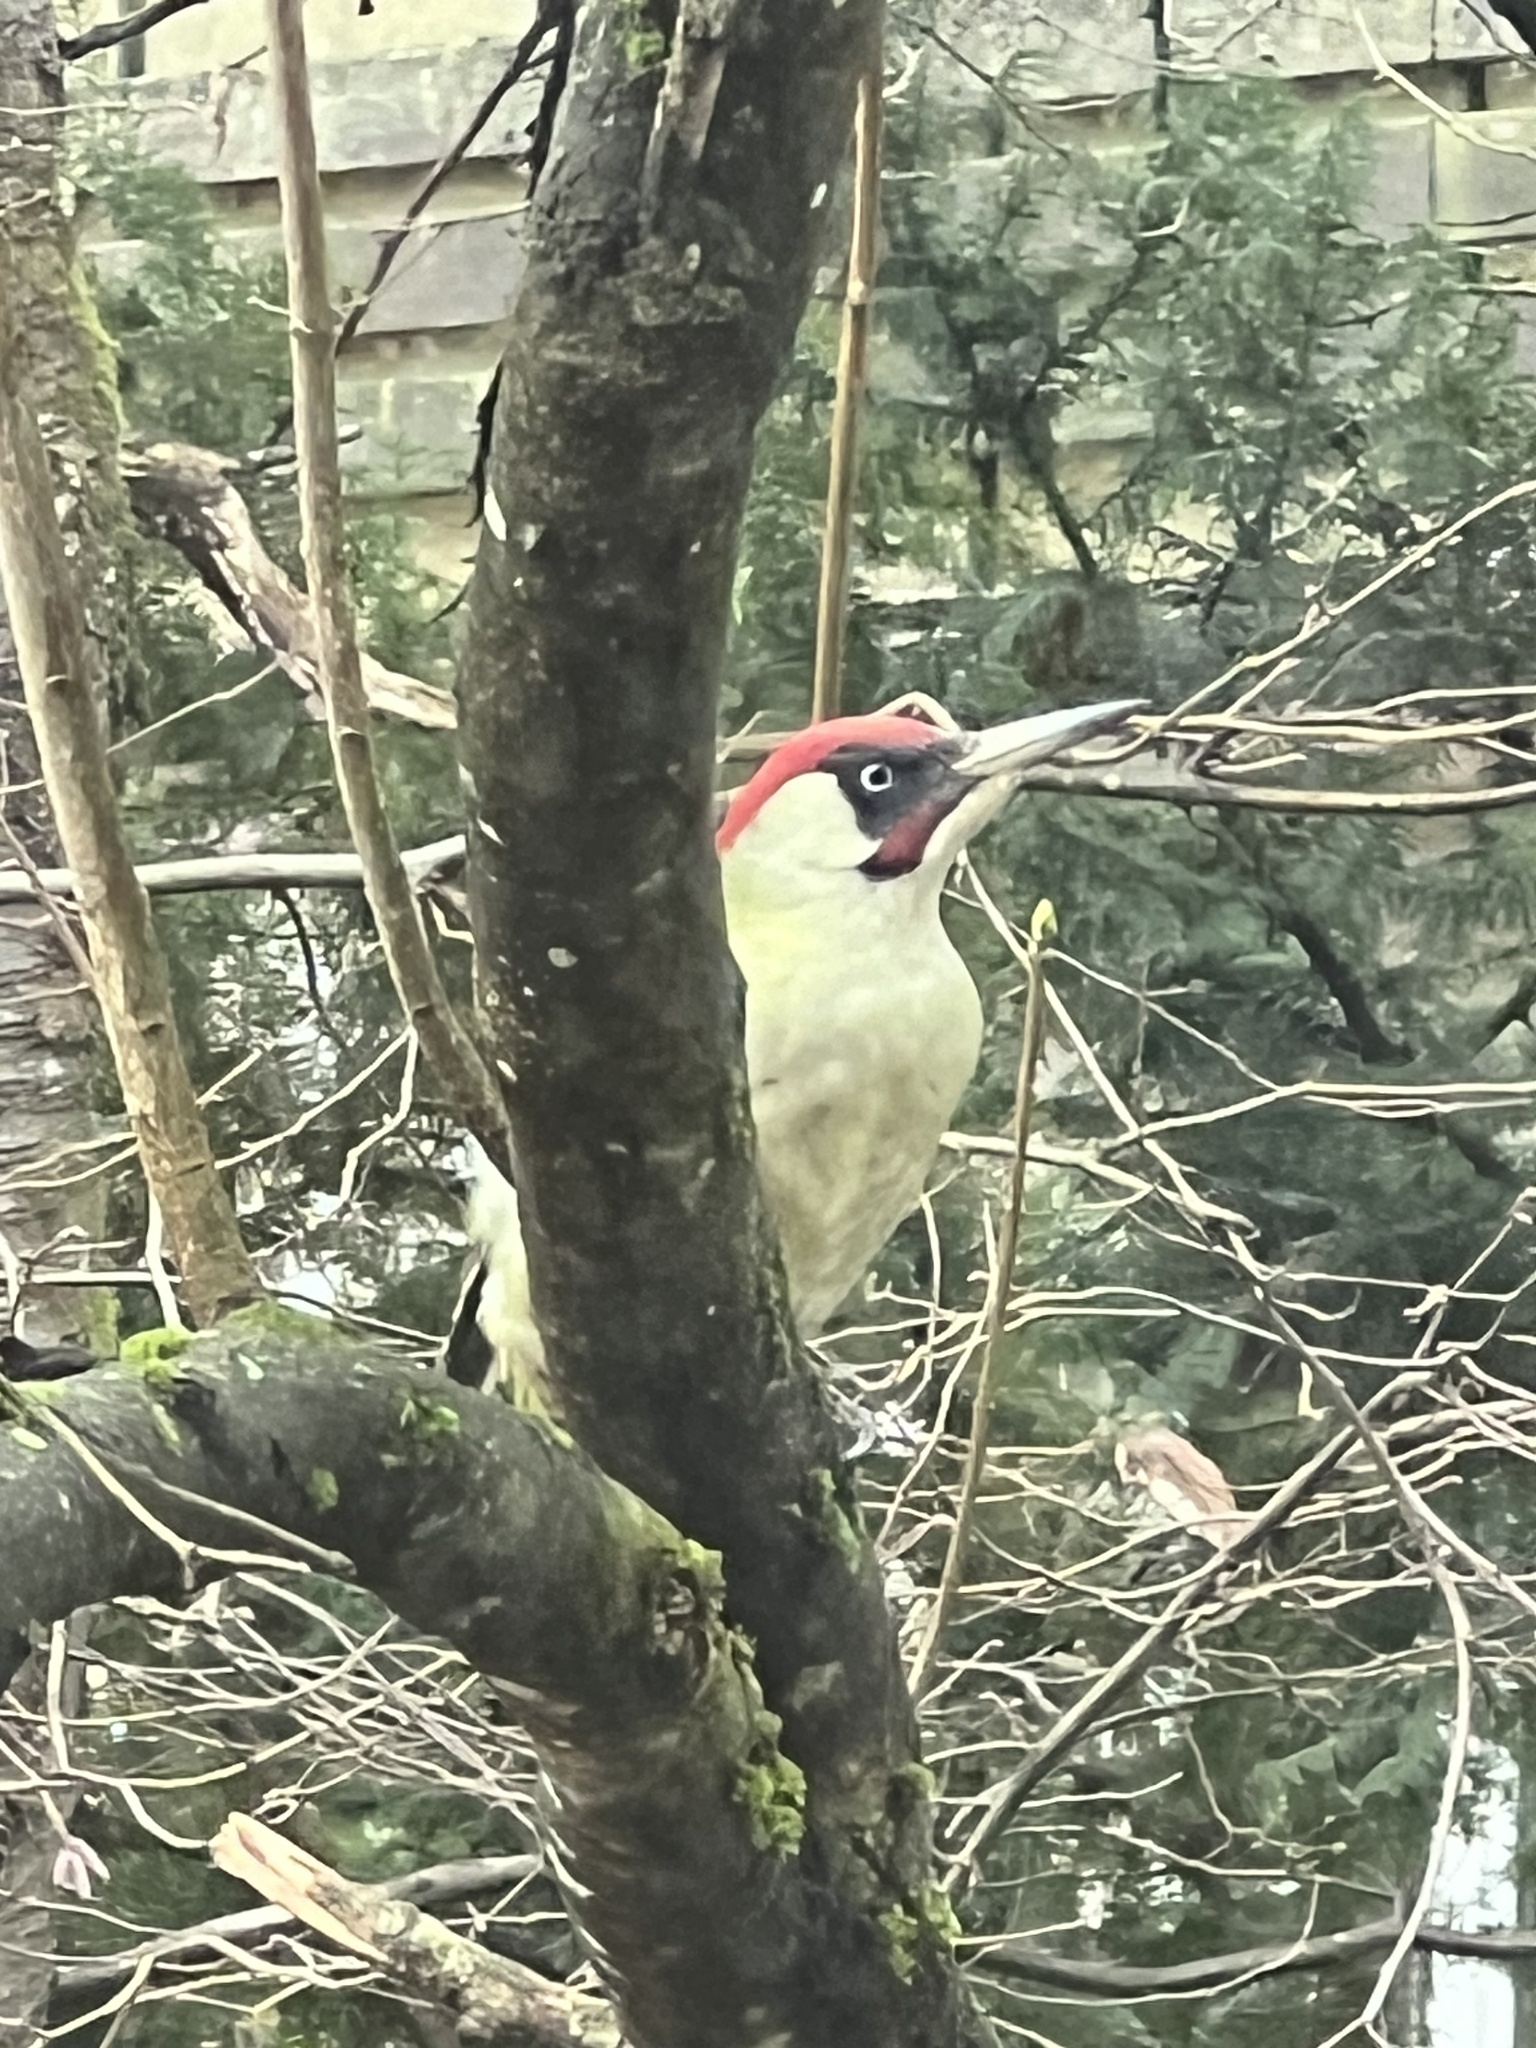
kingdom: Animalia
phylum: Chordata
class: Aves
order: Piciformes
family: Picidae
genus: Picus
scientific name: Picus viridis
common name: European green woodpecker
